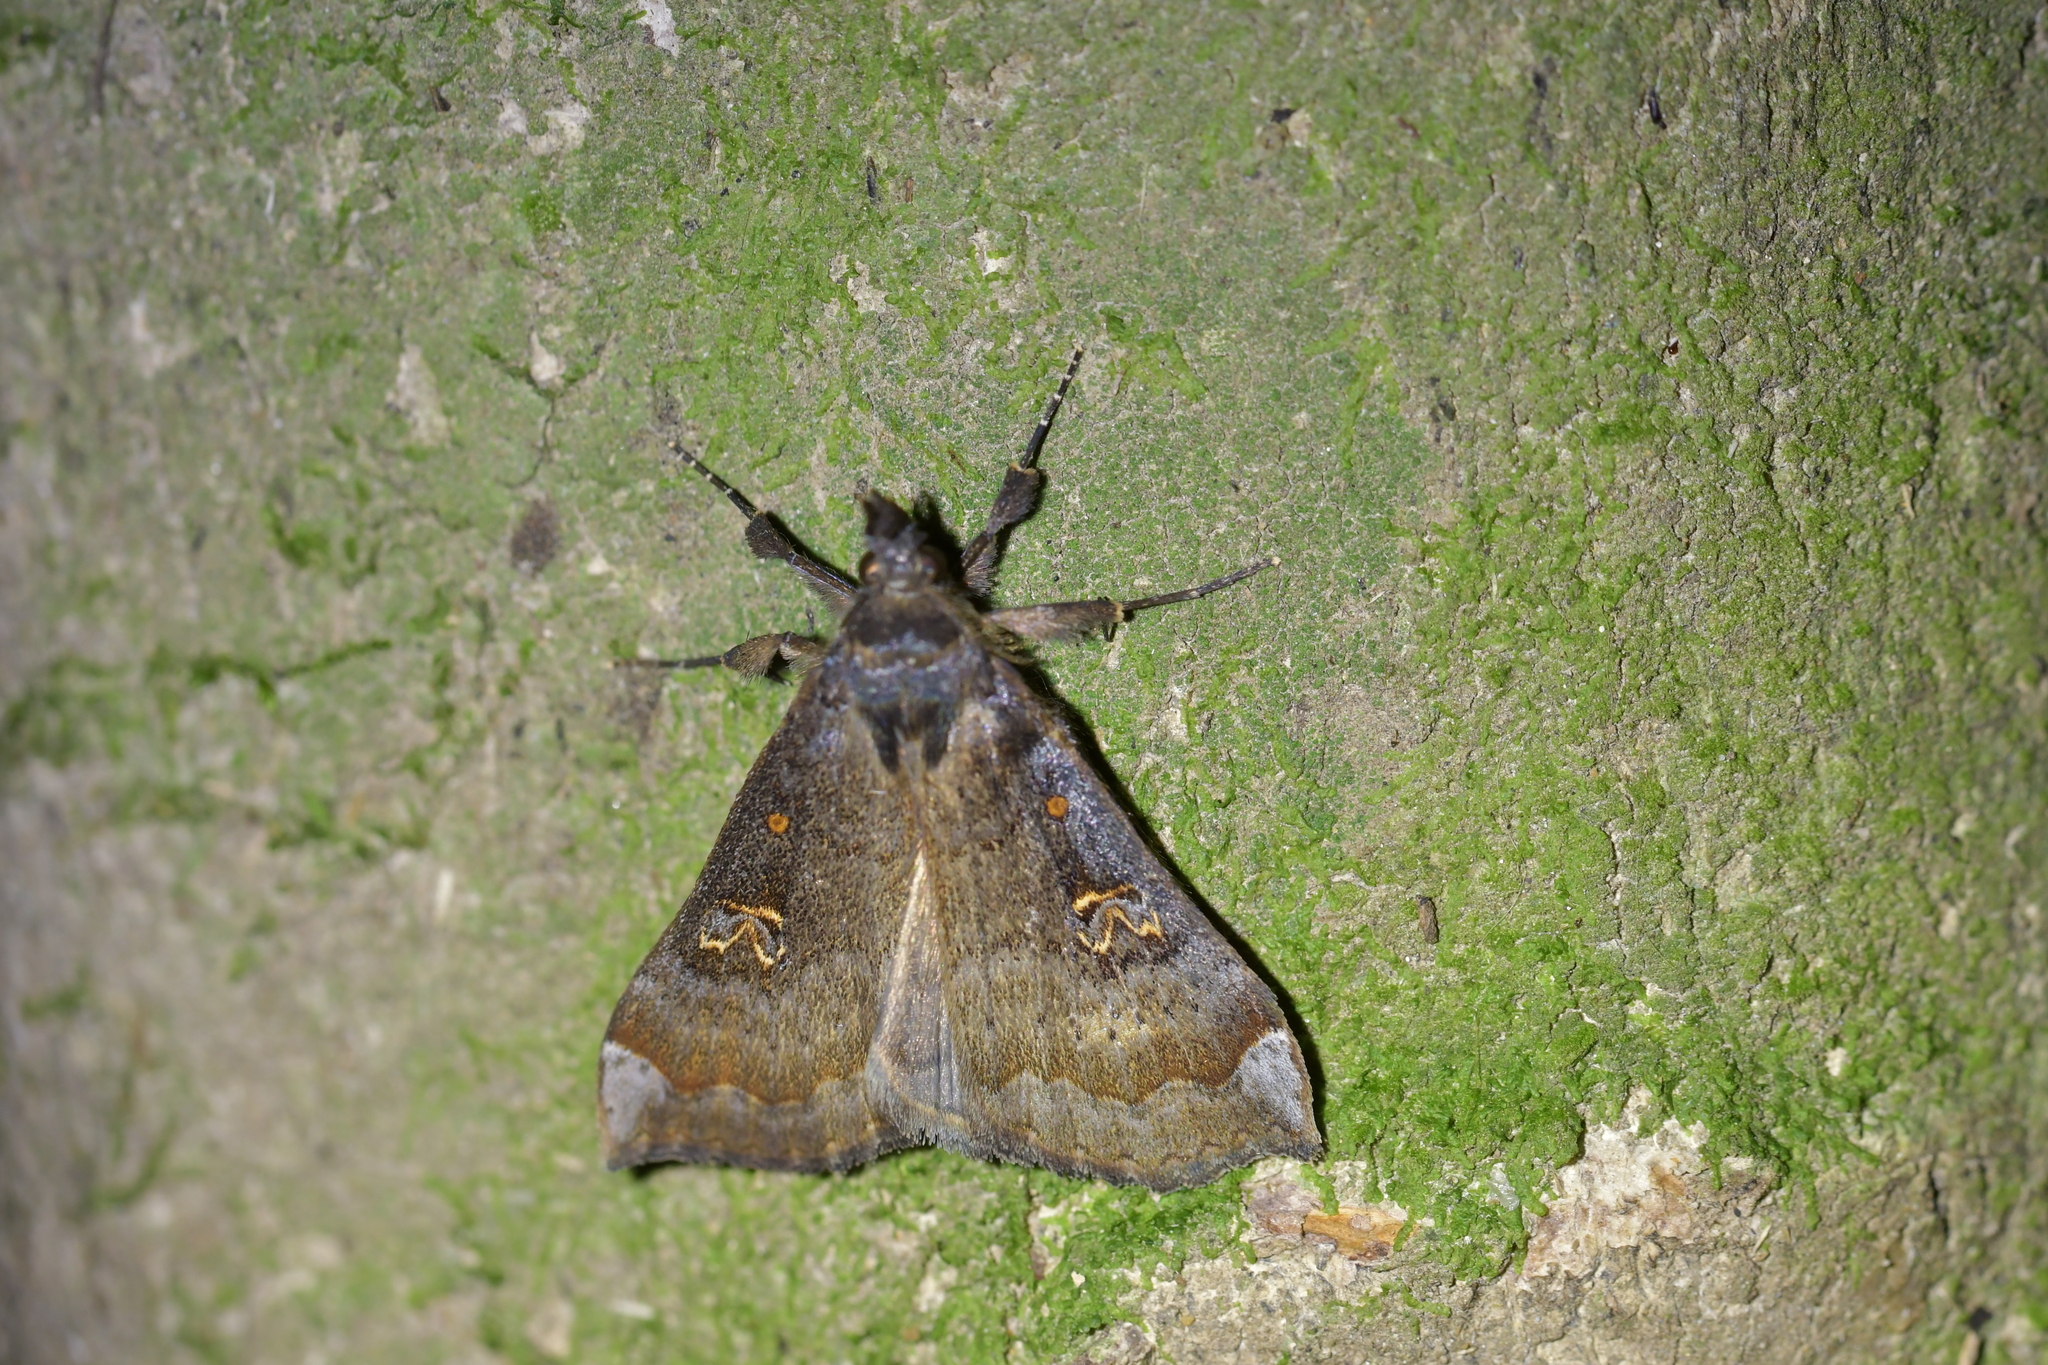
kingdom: Animalia
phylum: Arthropoda
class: Insecta
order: Lepidoptera
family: Erebidae
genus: Rhapsa
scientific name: Rhapsa scotosialis
